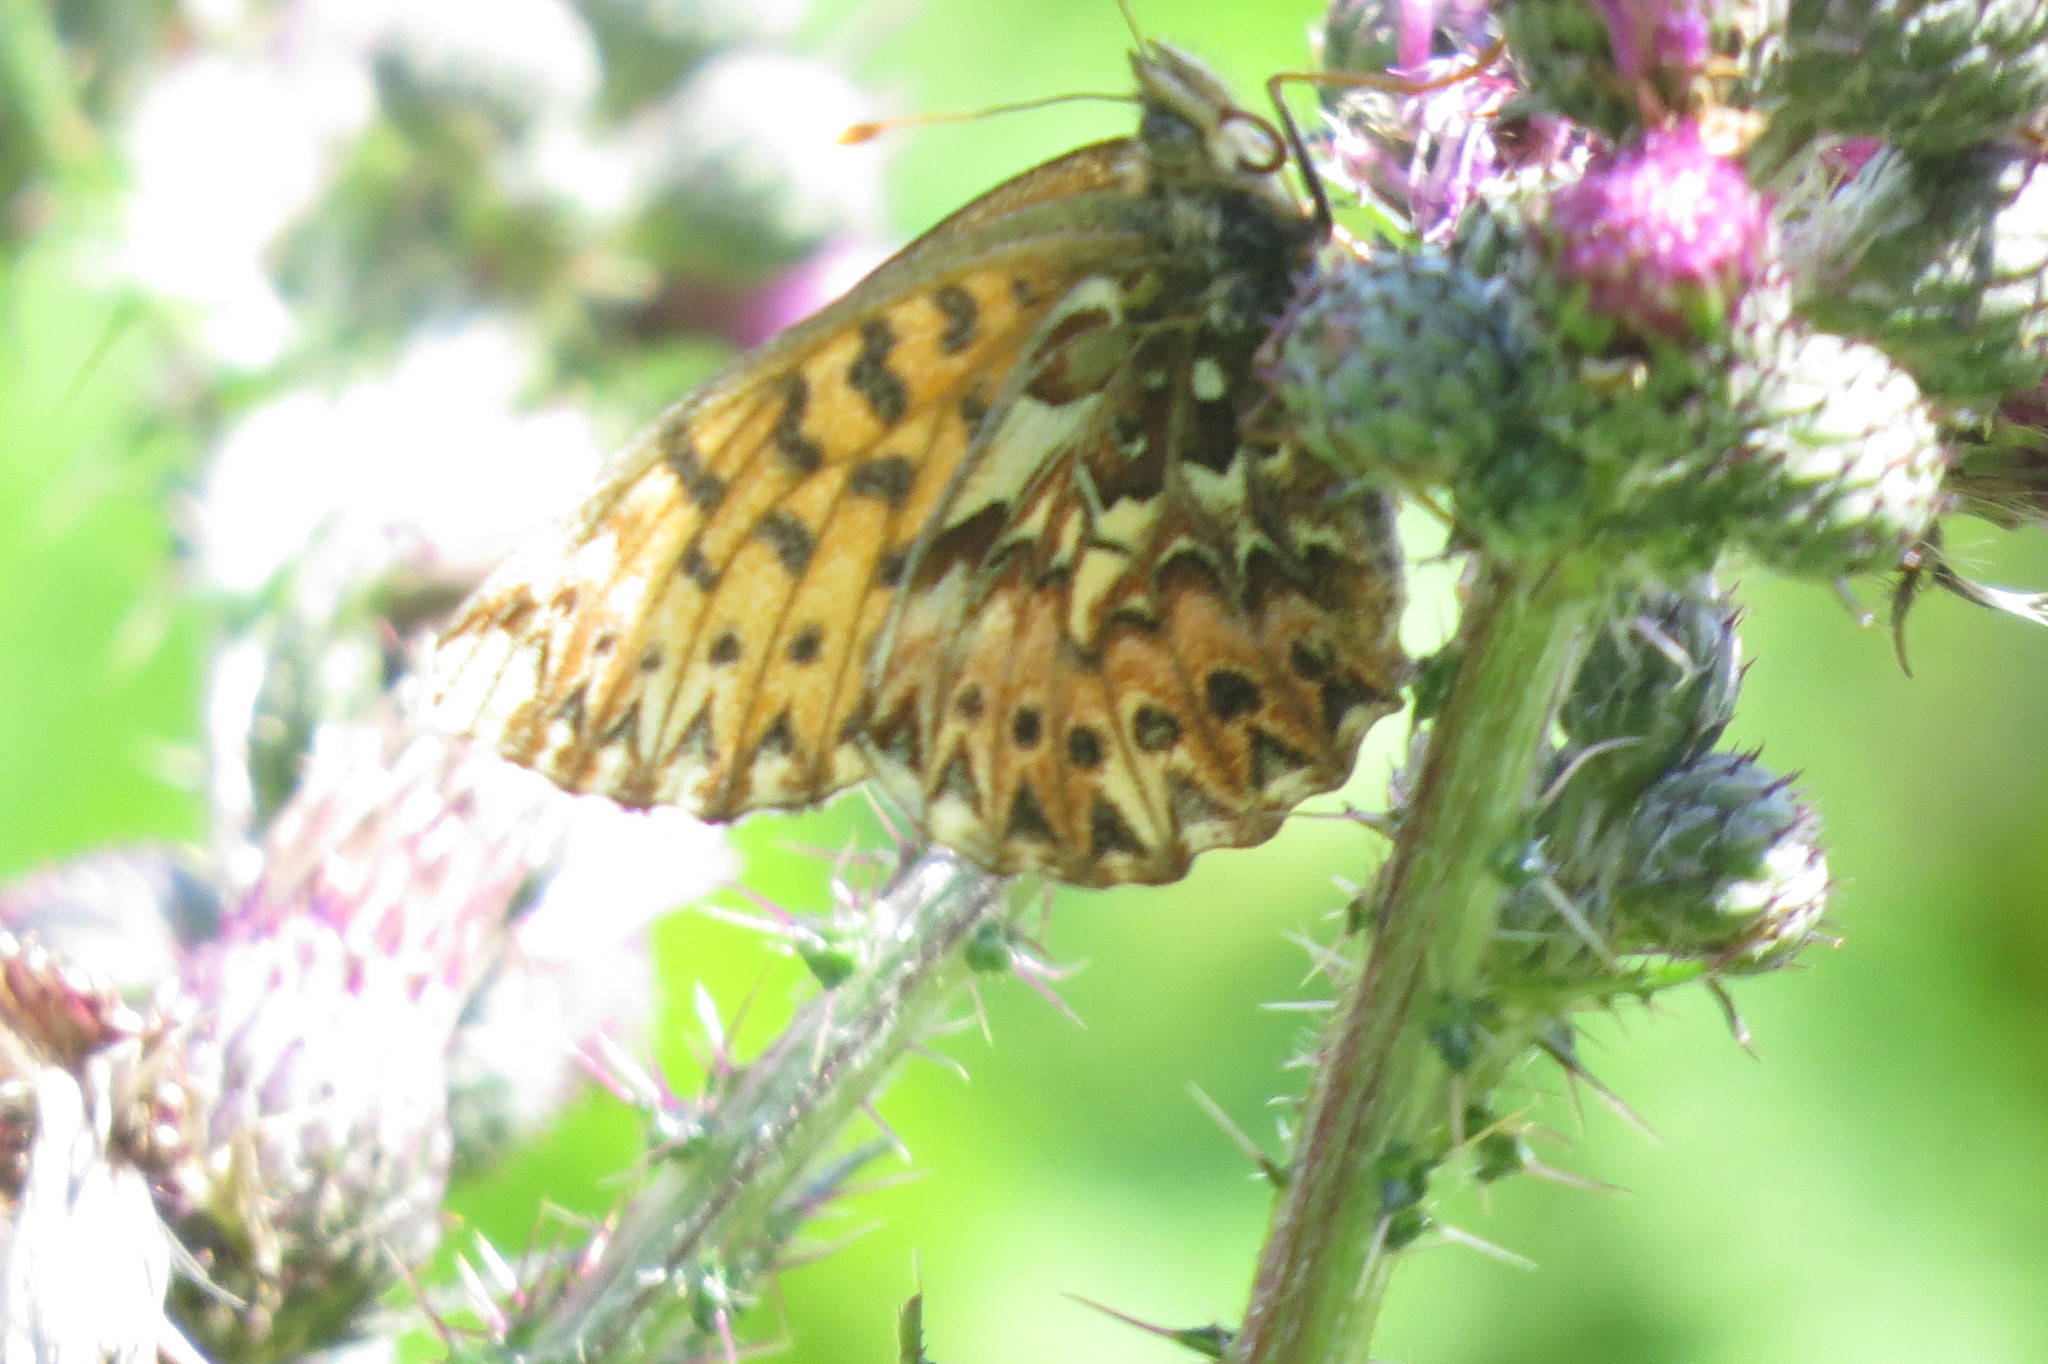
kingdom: Animalia
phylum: Arthropoda
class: Insecta
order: Lepidoptera
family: Nymphalidae
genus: Boloria
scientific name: Boloria titania
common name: Titania's fritillary
